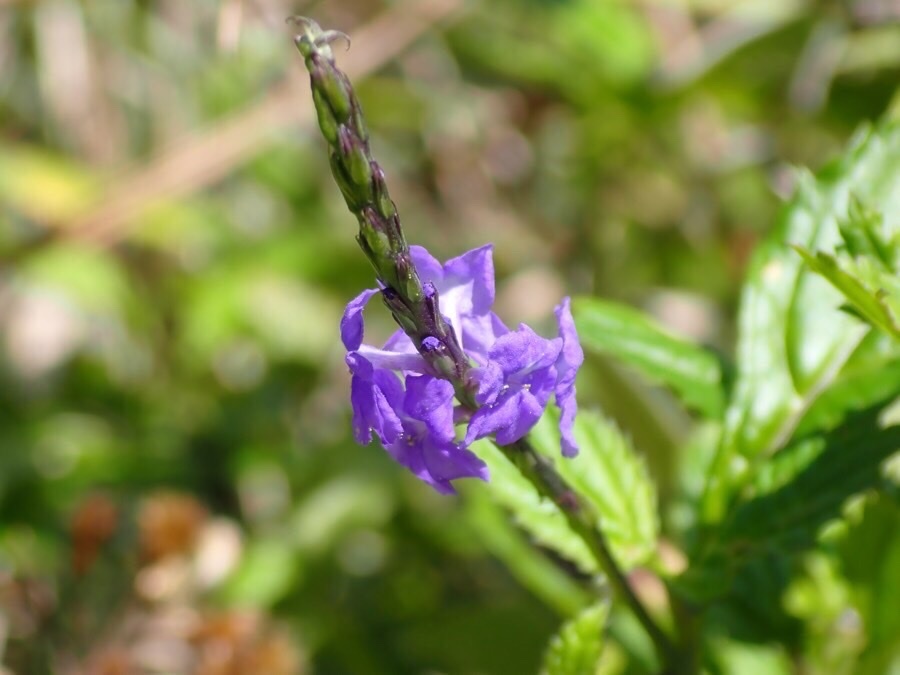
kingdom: Plantae
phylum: Tracheophyta
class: Magnoliopsida
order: Lamiales
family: Verbenaceae
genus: Stachytarpheta
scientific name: Stachytarpheta jamaicensis
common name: Light-blue snakeweed
